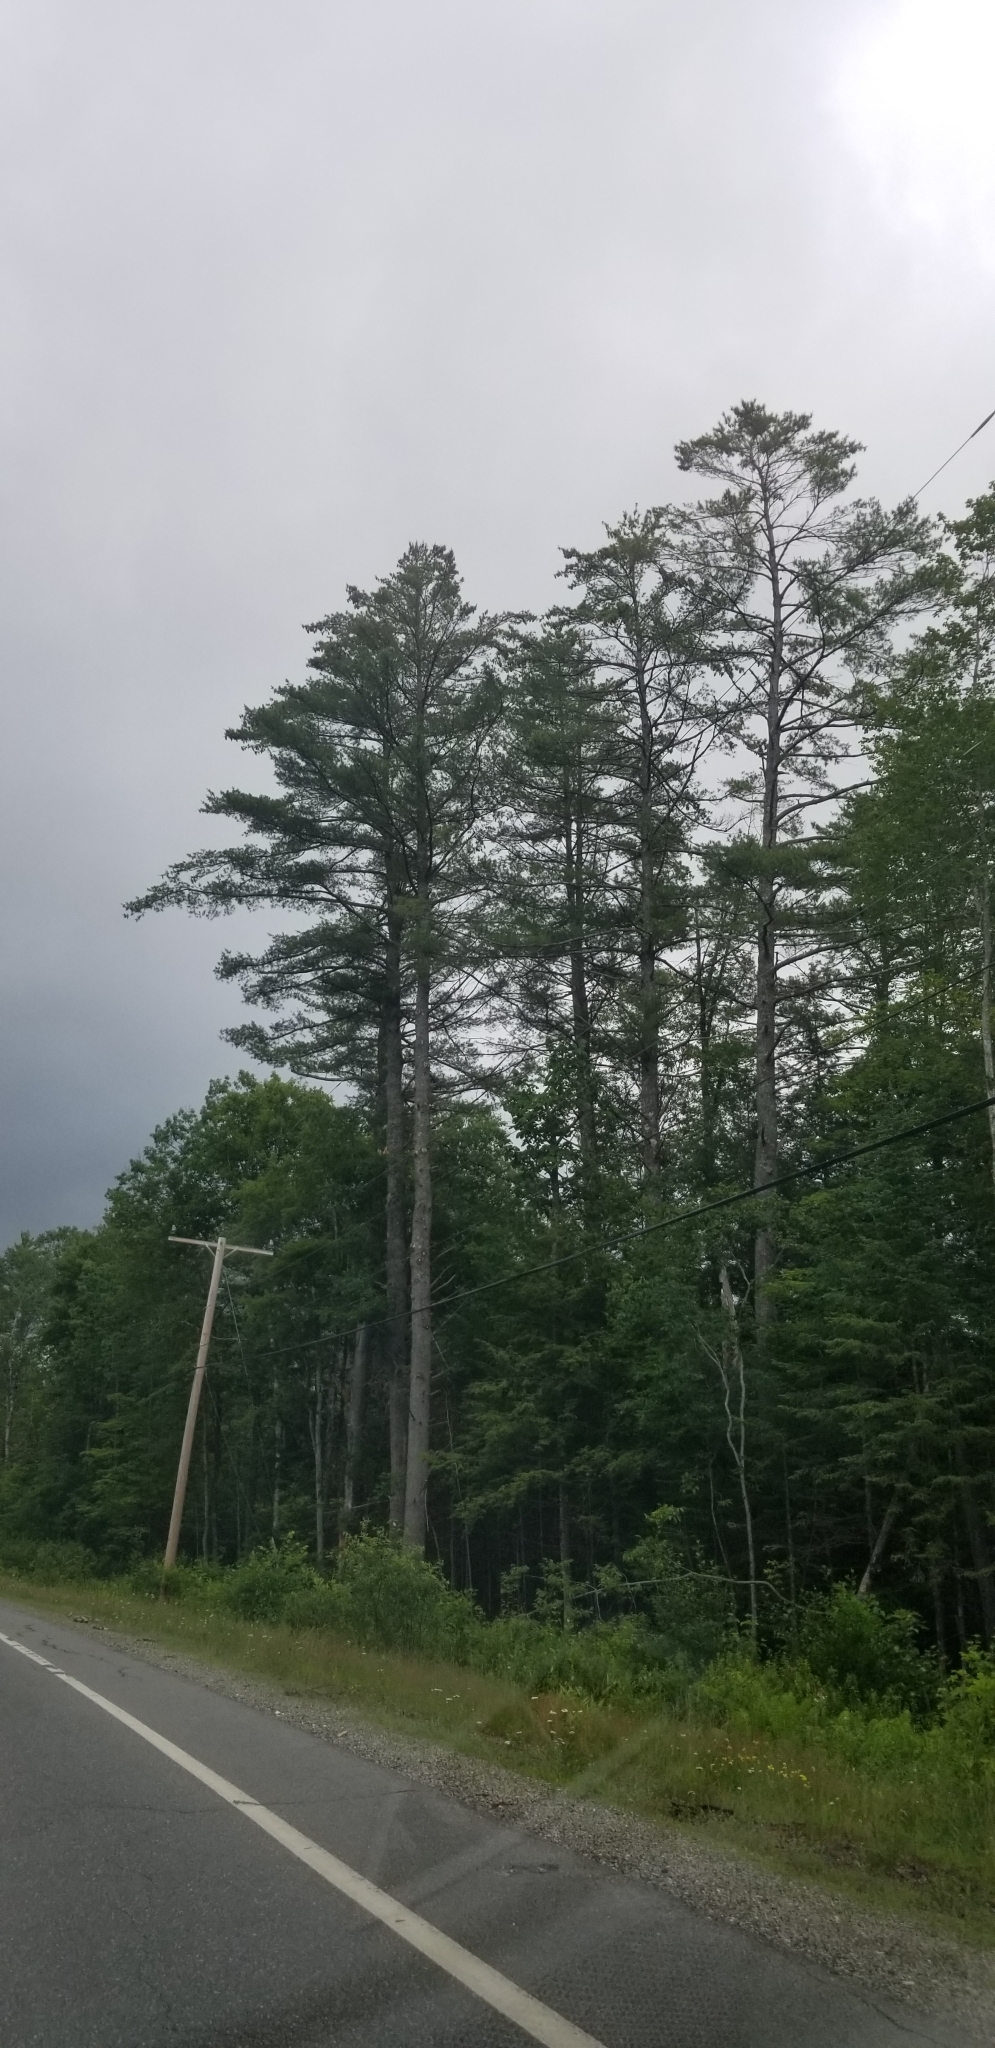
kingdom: Plantae
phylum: Tracheophyta
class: Pinopsida
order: Pinales
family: Pinaceae
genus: Pinus
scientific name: Pinus strobus
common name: Weymouth pine
